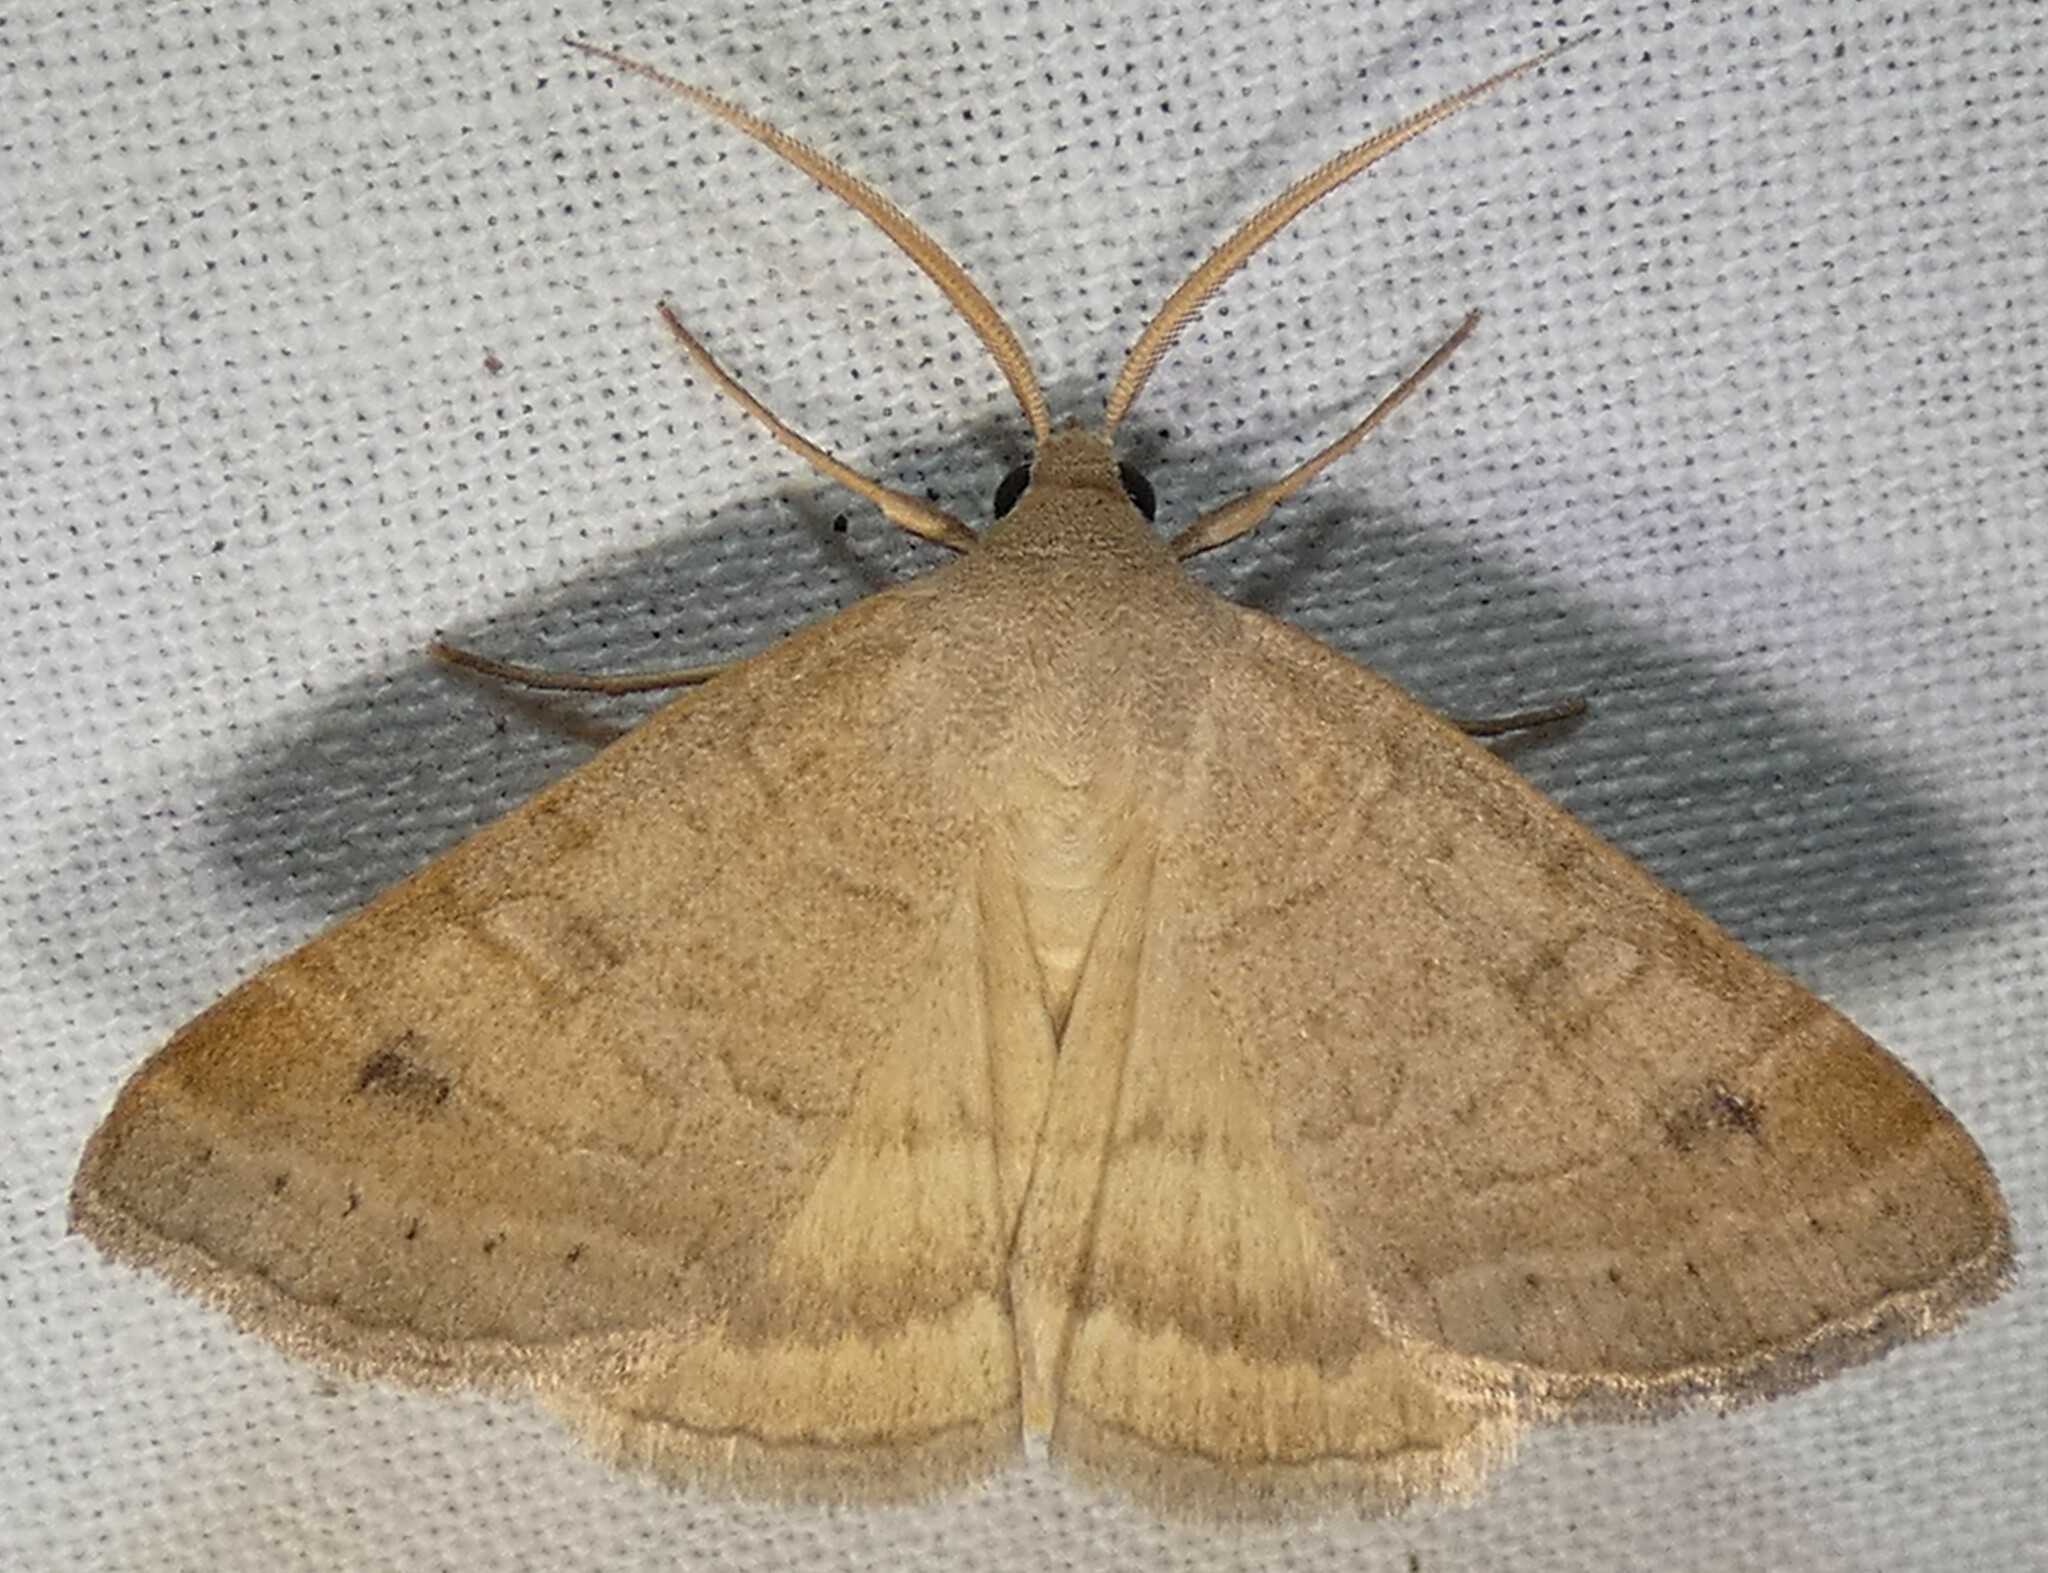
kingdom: Animalia
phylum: Arthropoda
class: Insecta
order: Lepidoptera
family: Erebidae
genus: Caenurgia
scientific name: Caenurgia chloropha
